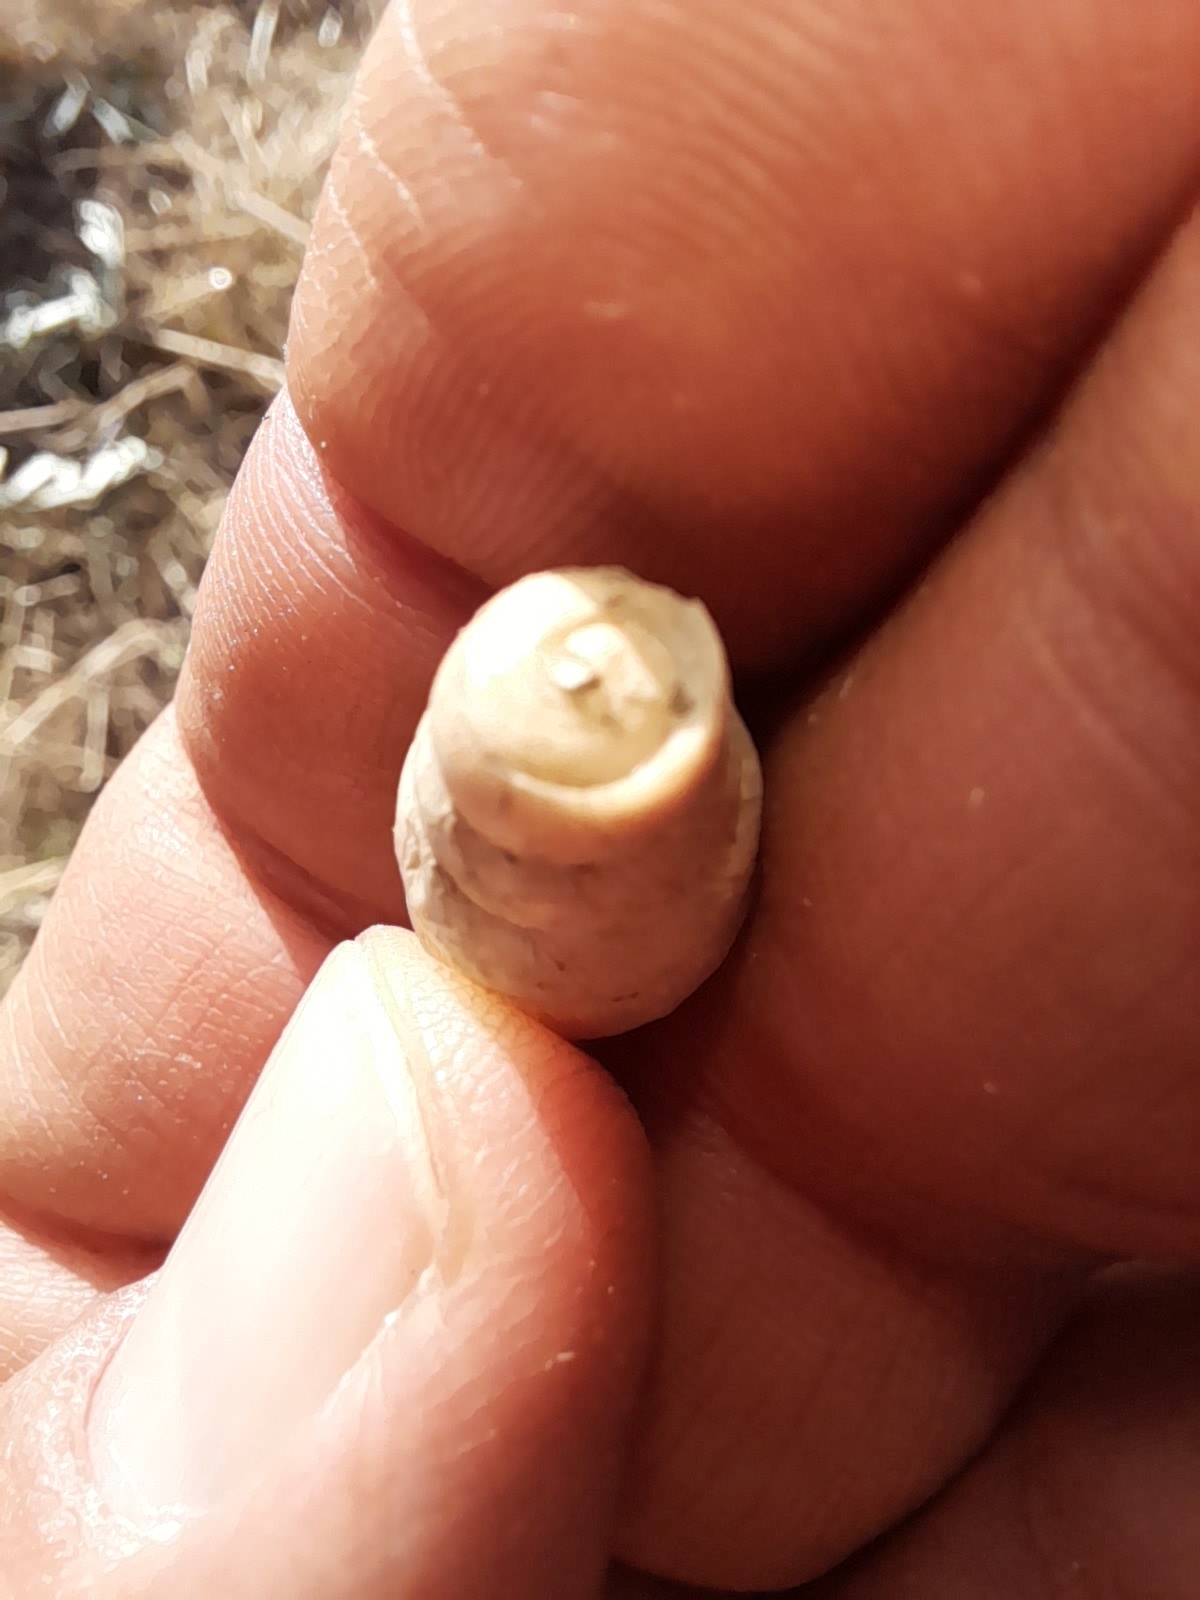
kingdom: Animalia
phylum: Mollusca
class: Gastropoda
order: Stylommatophora
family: Achatinidae
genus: Rumina
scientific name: Rumina decollata
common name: Decollate snail
